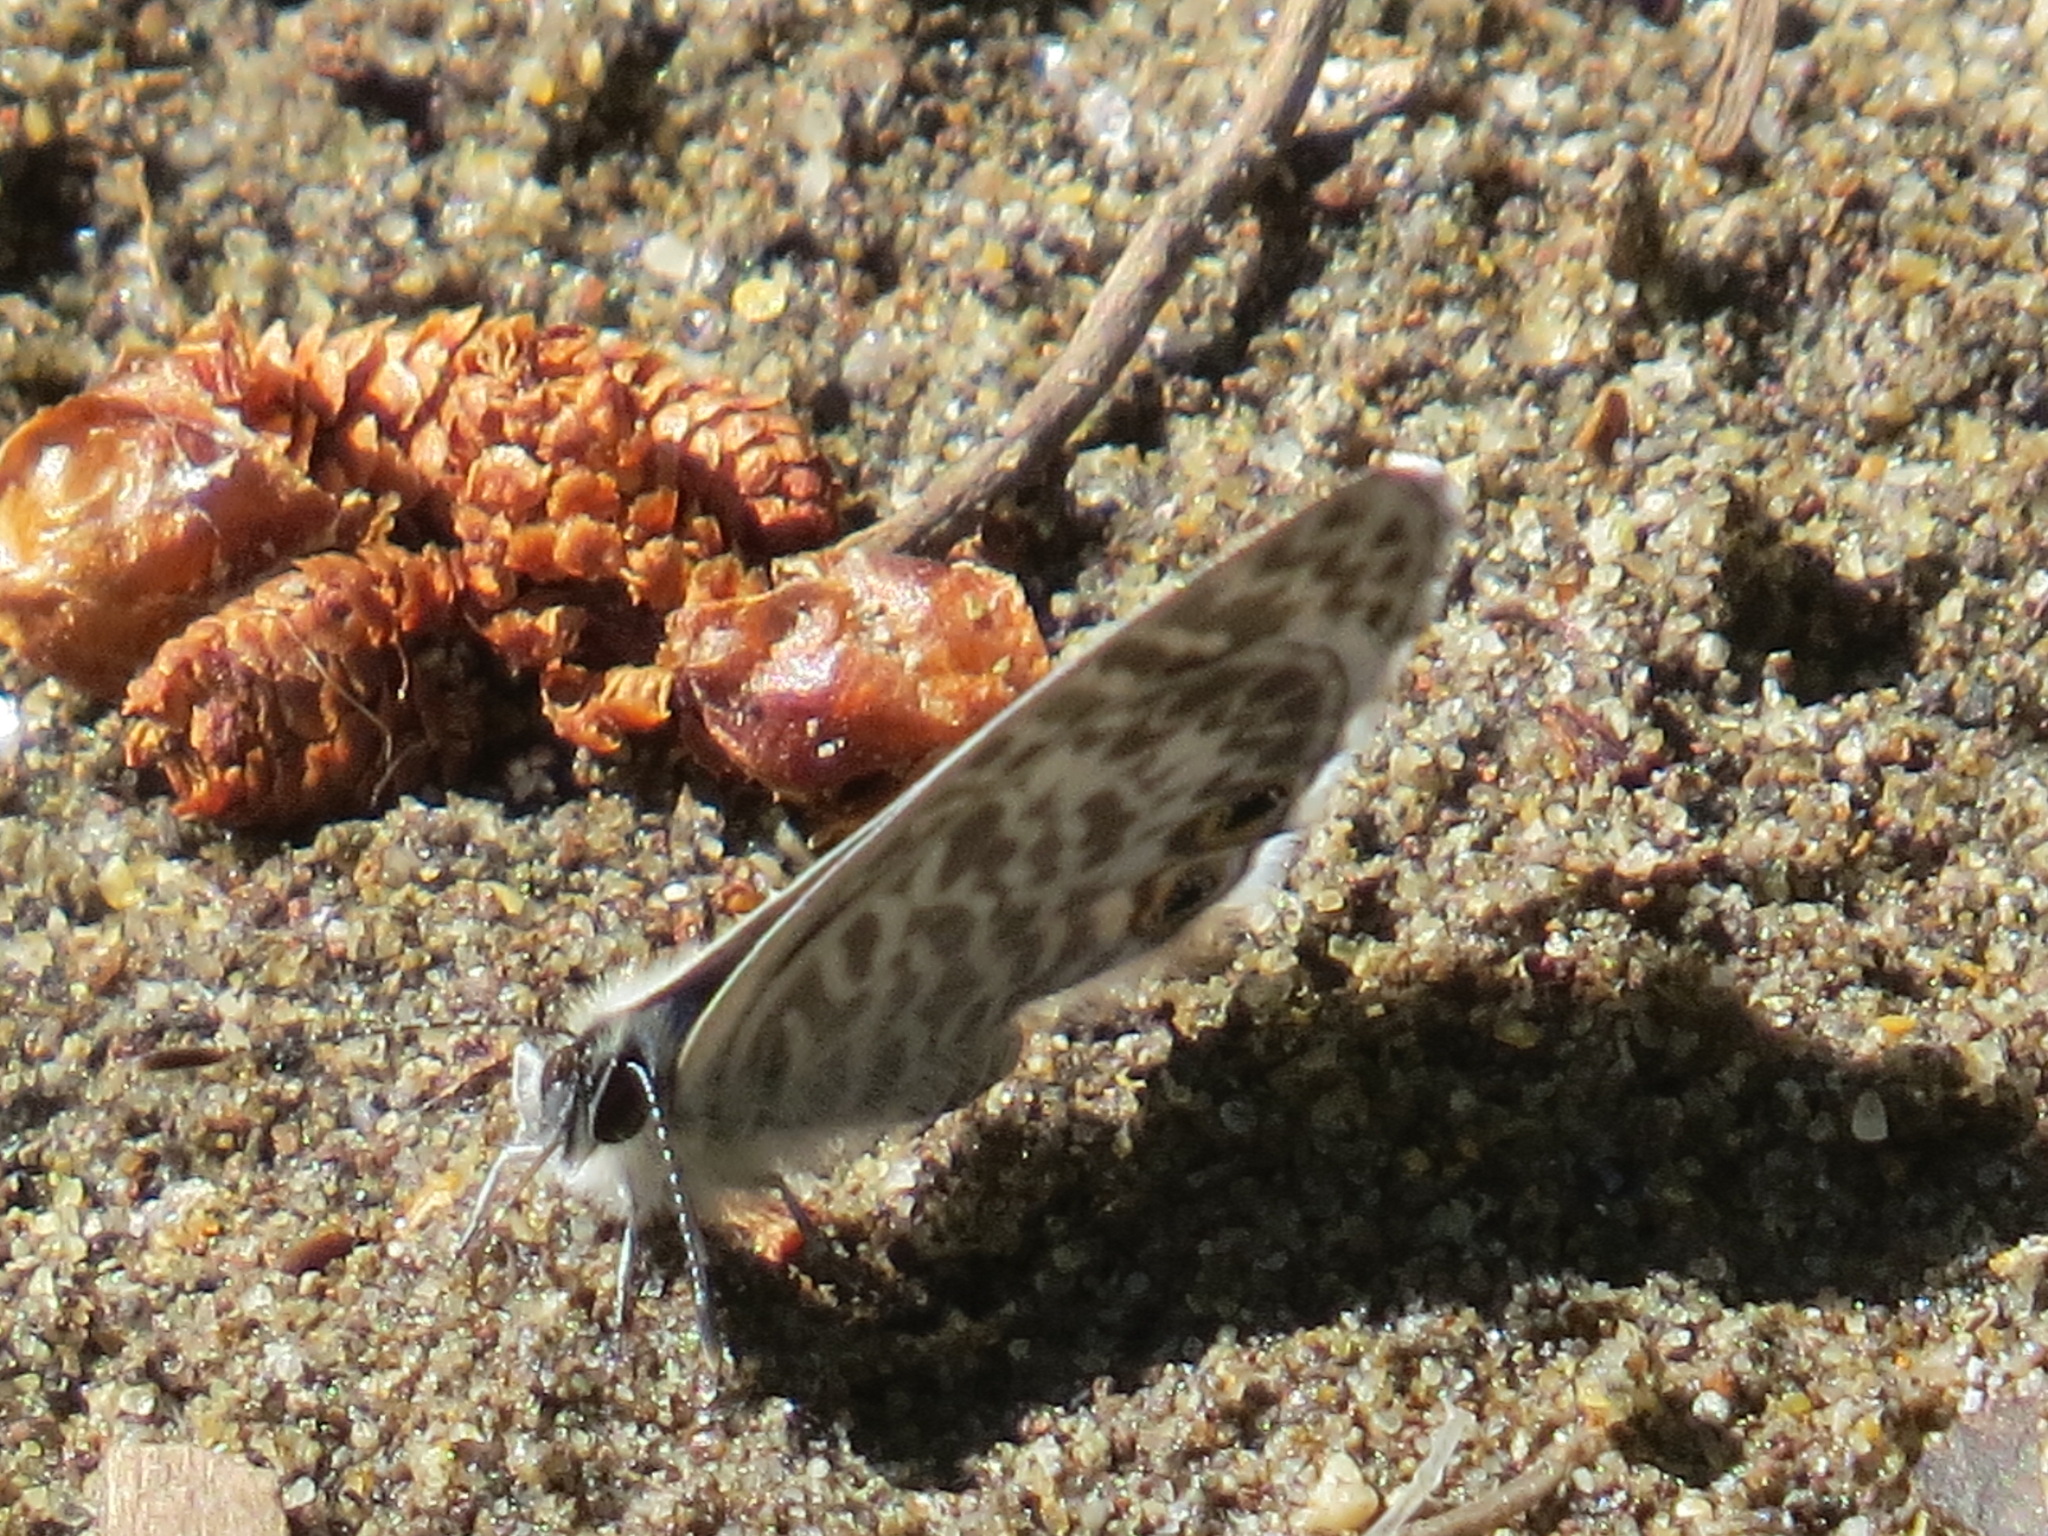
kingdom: Animalia
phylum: Arthropoda
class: Insecta
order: Lepidoptera
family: Lycaenidae
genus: Leptotes
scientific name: Leptotes marina
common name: Marine blue
